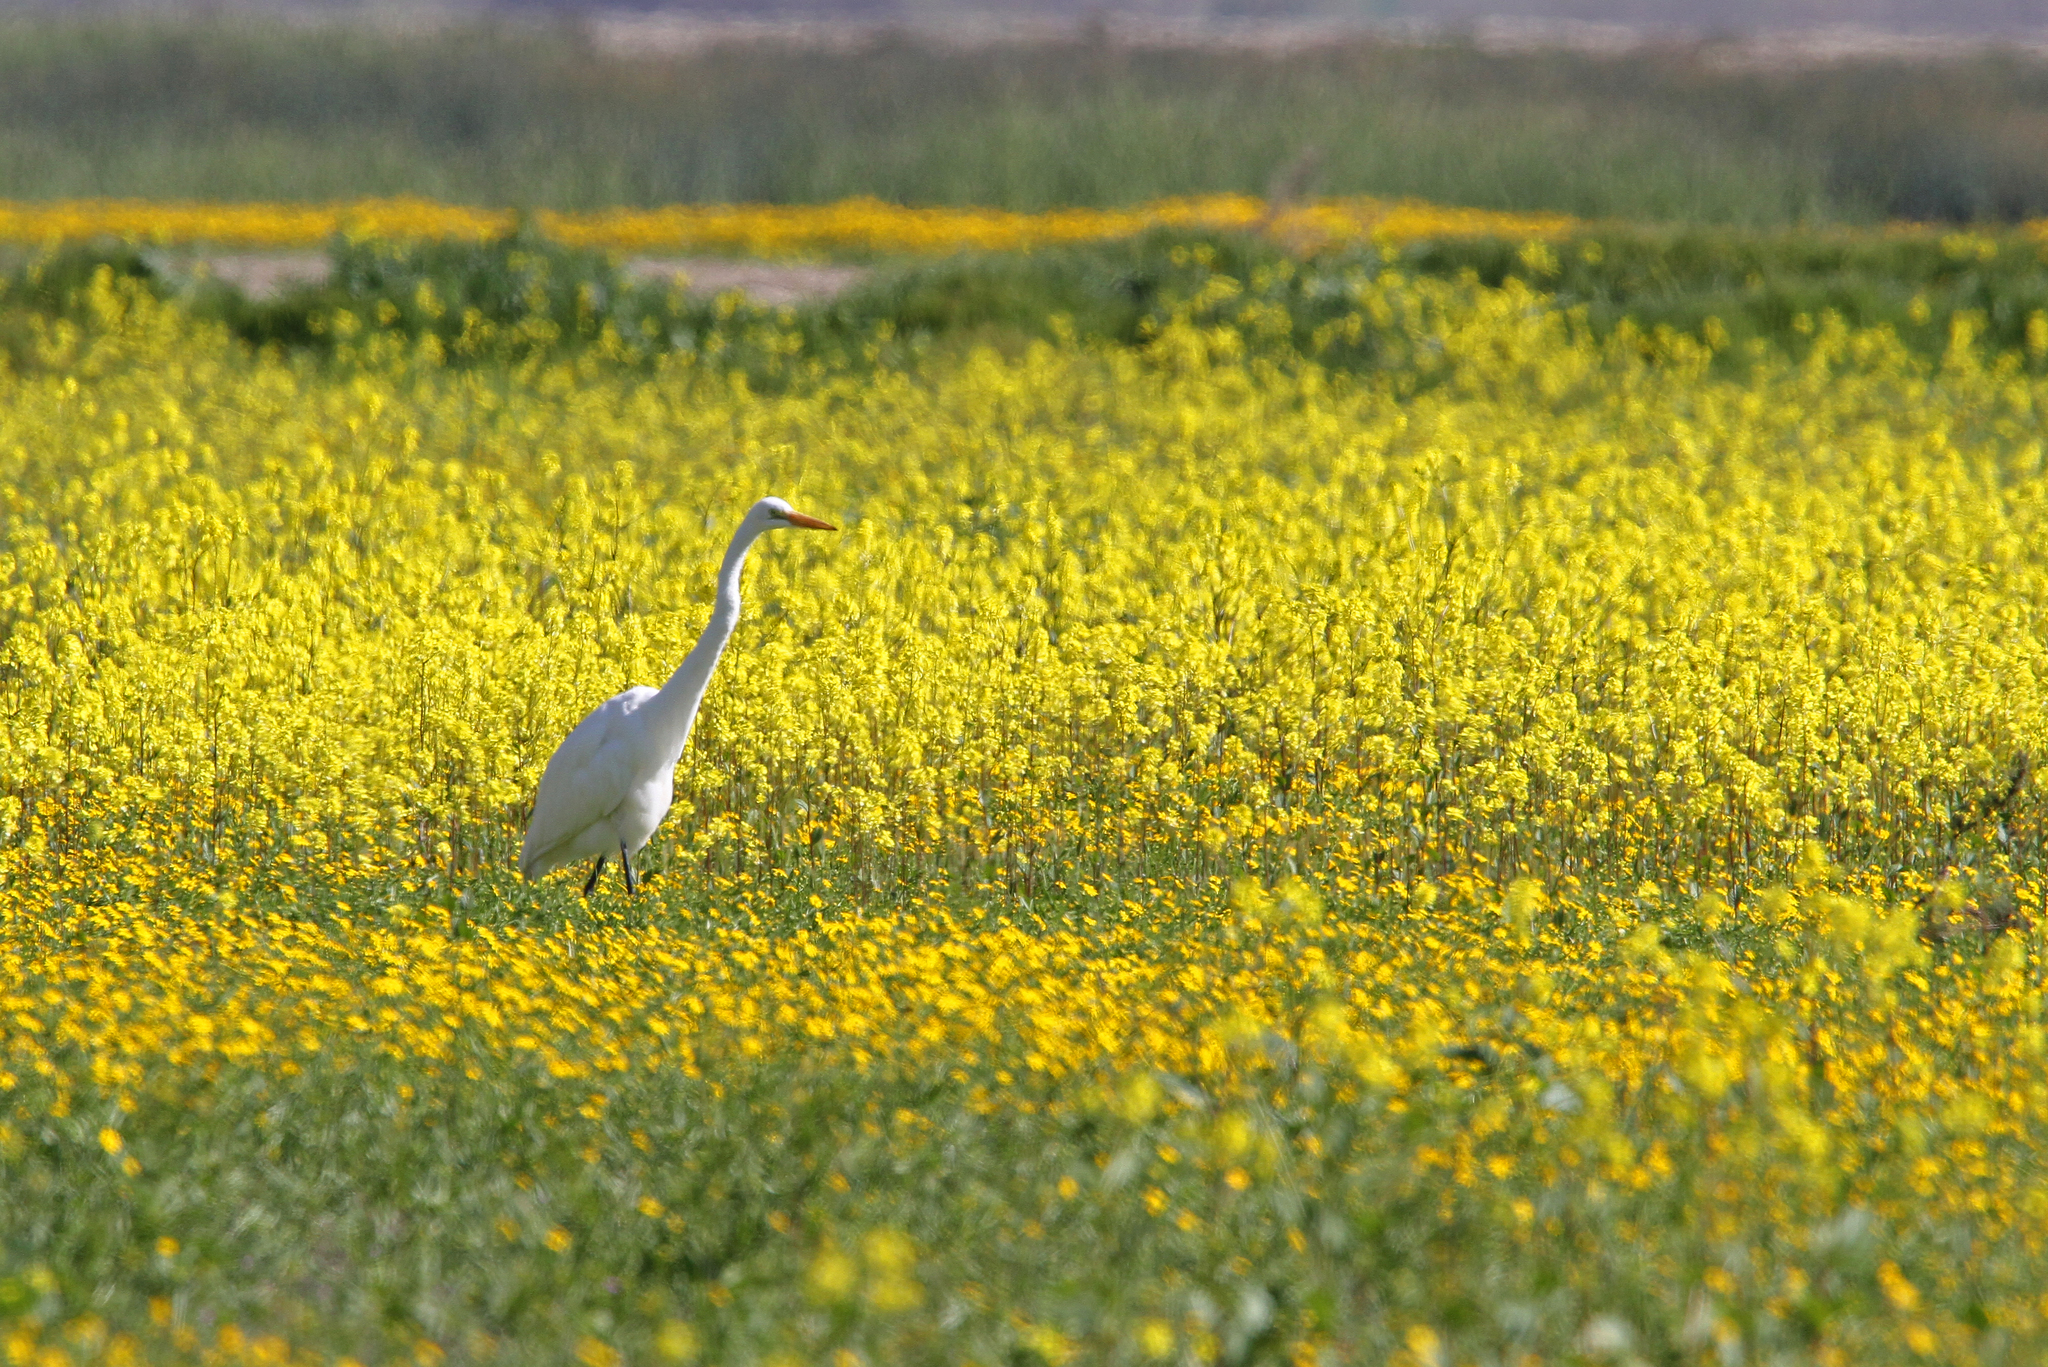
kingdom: Animalia
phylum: Chordata
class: Aves
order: Pelecaniformes
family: Ardeidae
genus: Ardea
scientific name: Ardea alba
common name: Great egret
